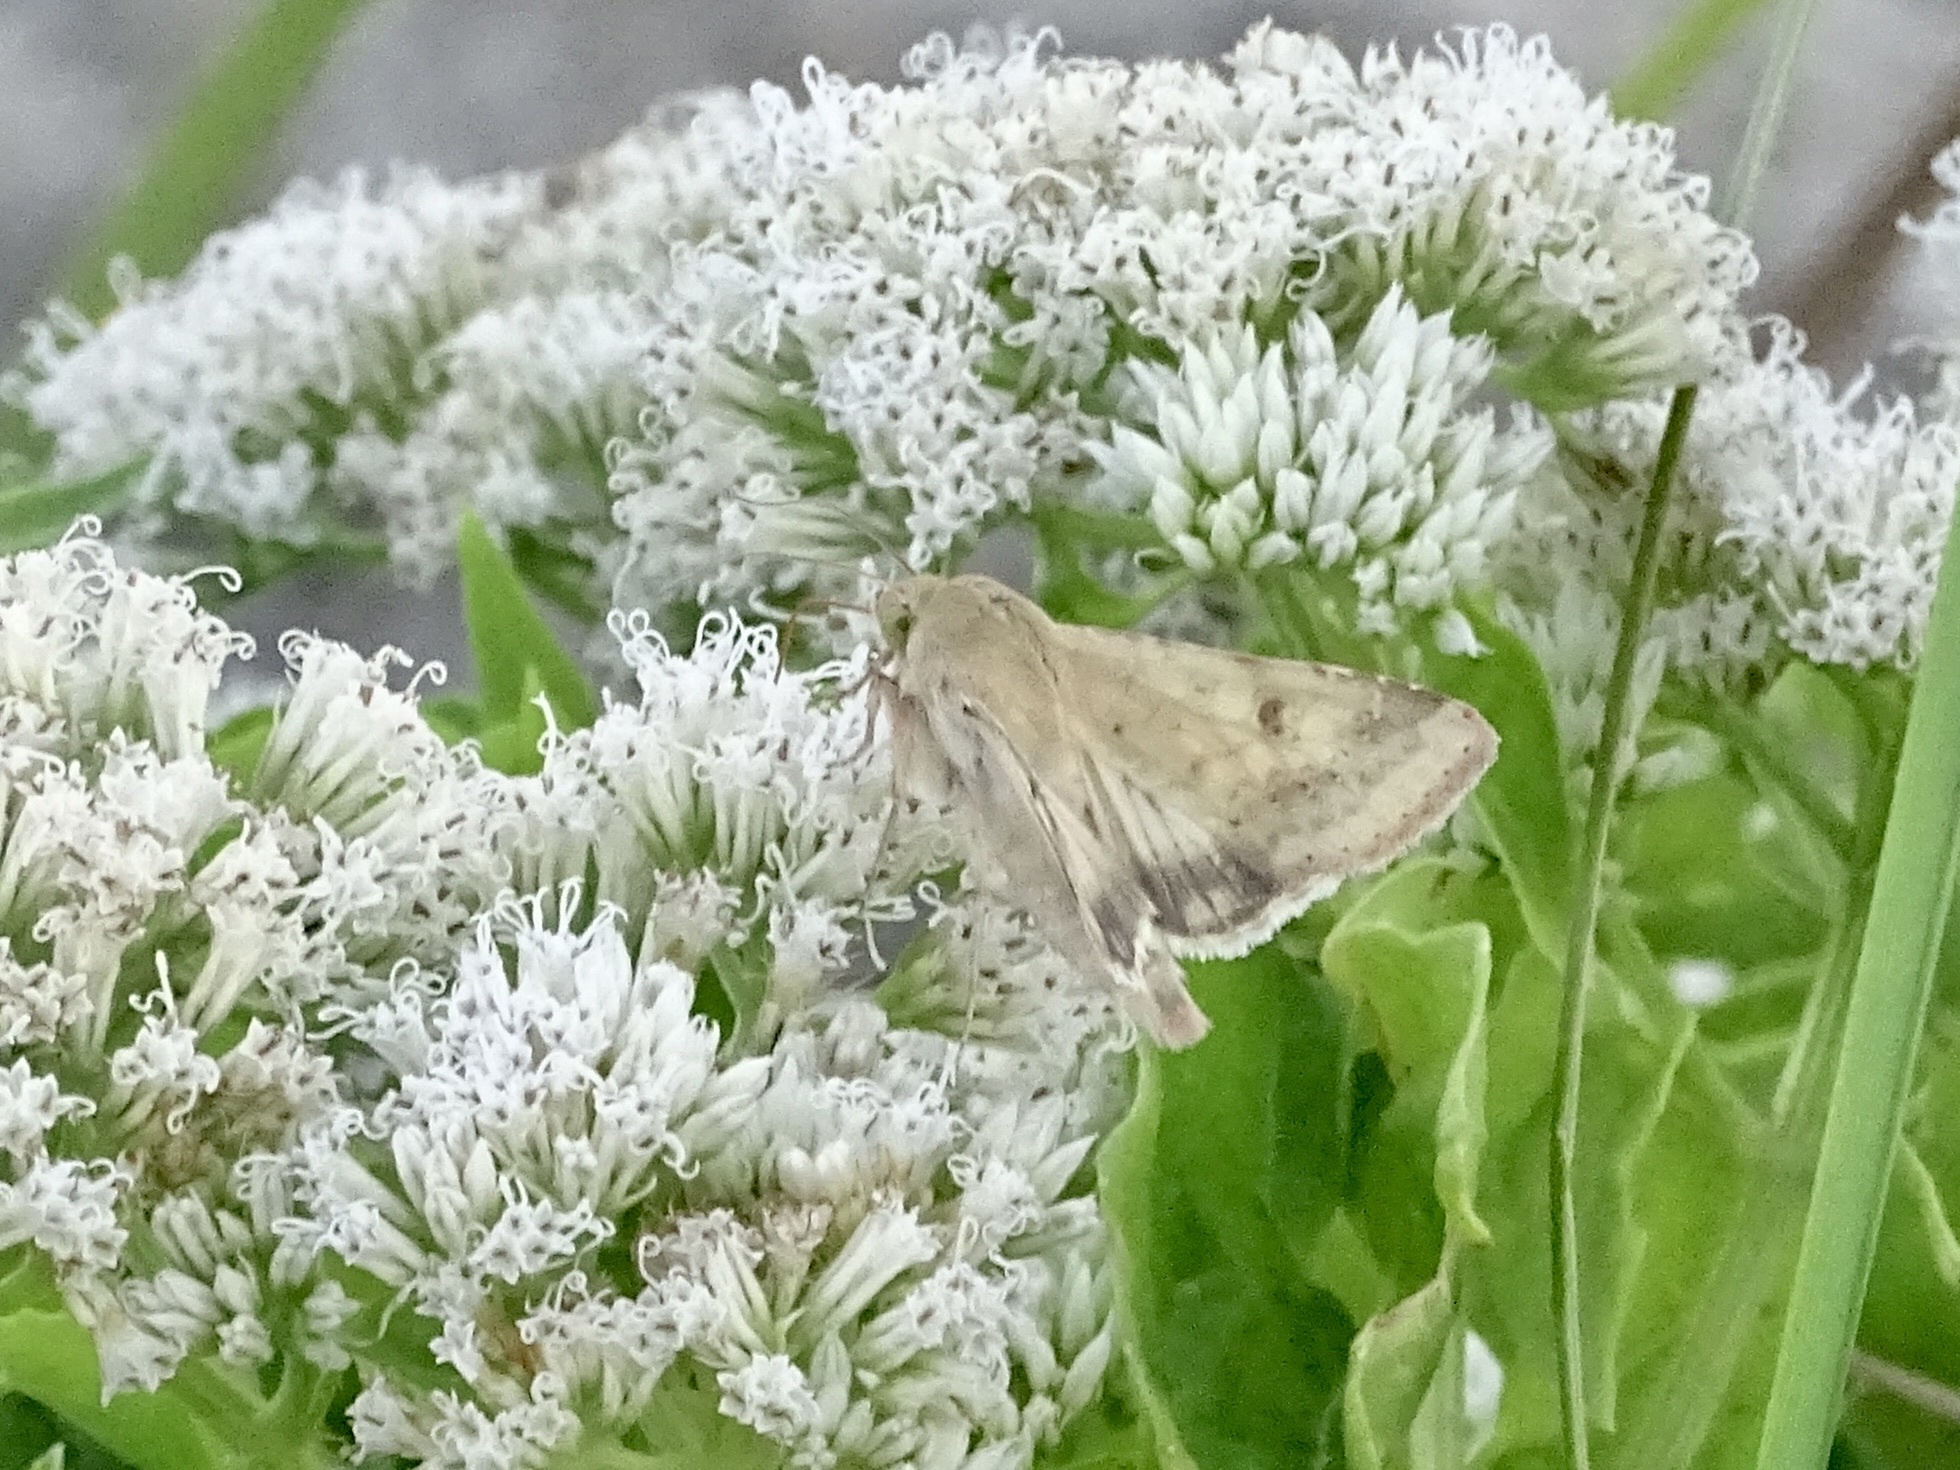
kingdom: Animalia
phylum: Arthropoda
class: Insecta
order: Lepidoptera
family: Noctuidae
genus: Helicoverpa
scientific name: Helicoverpa zea
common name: Bollworm
